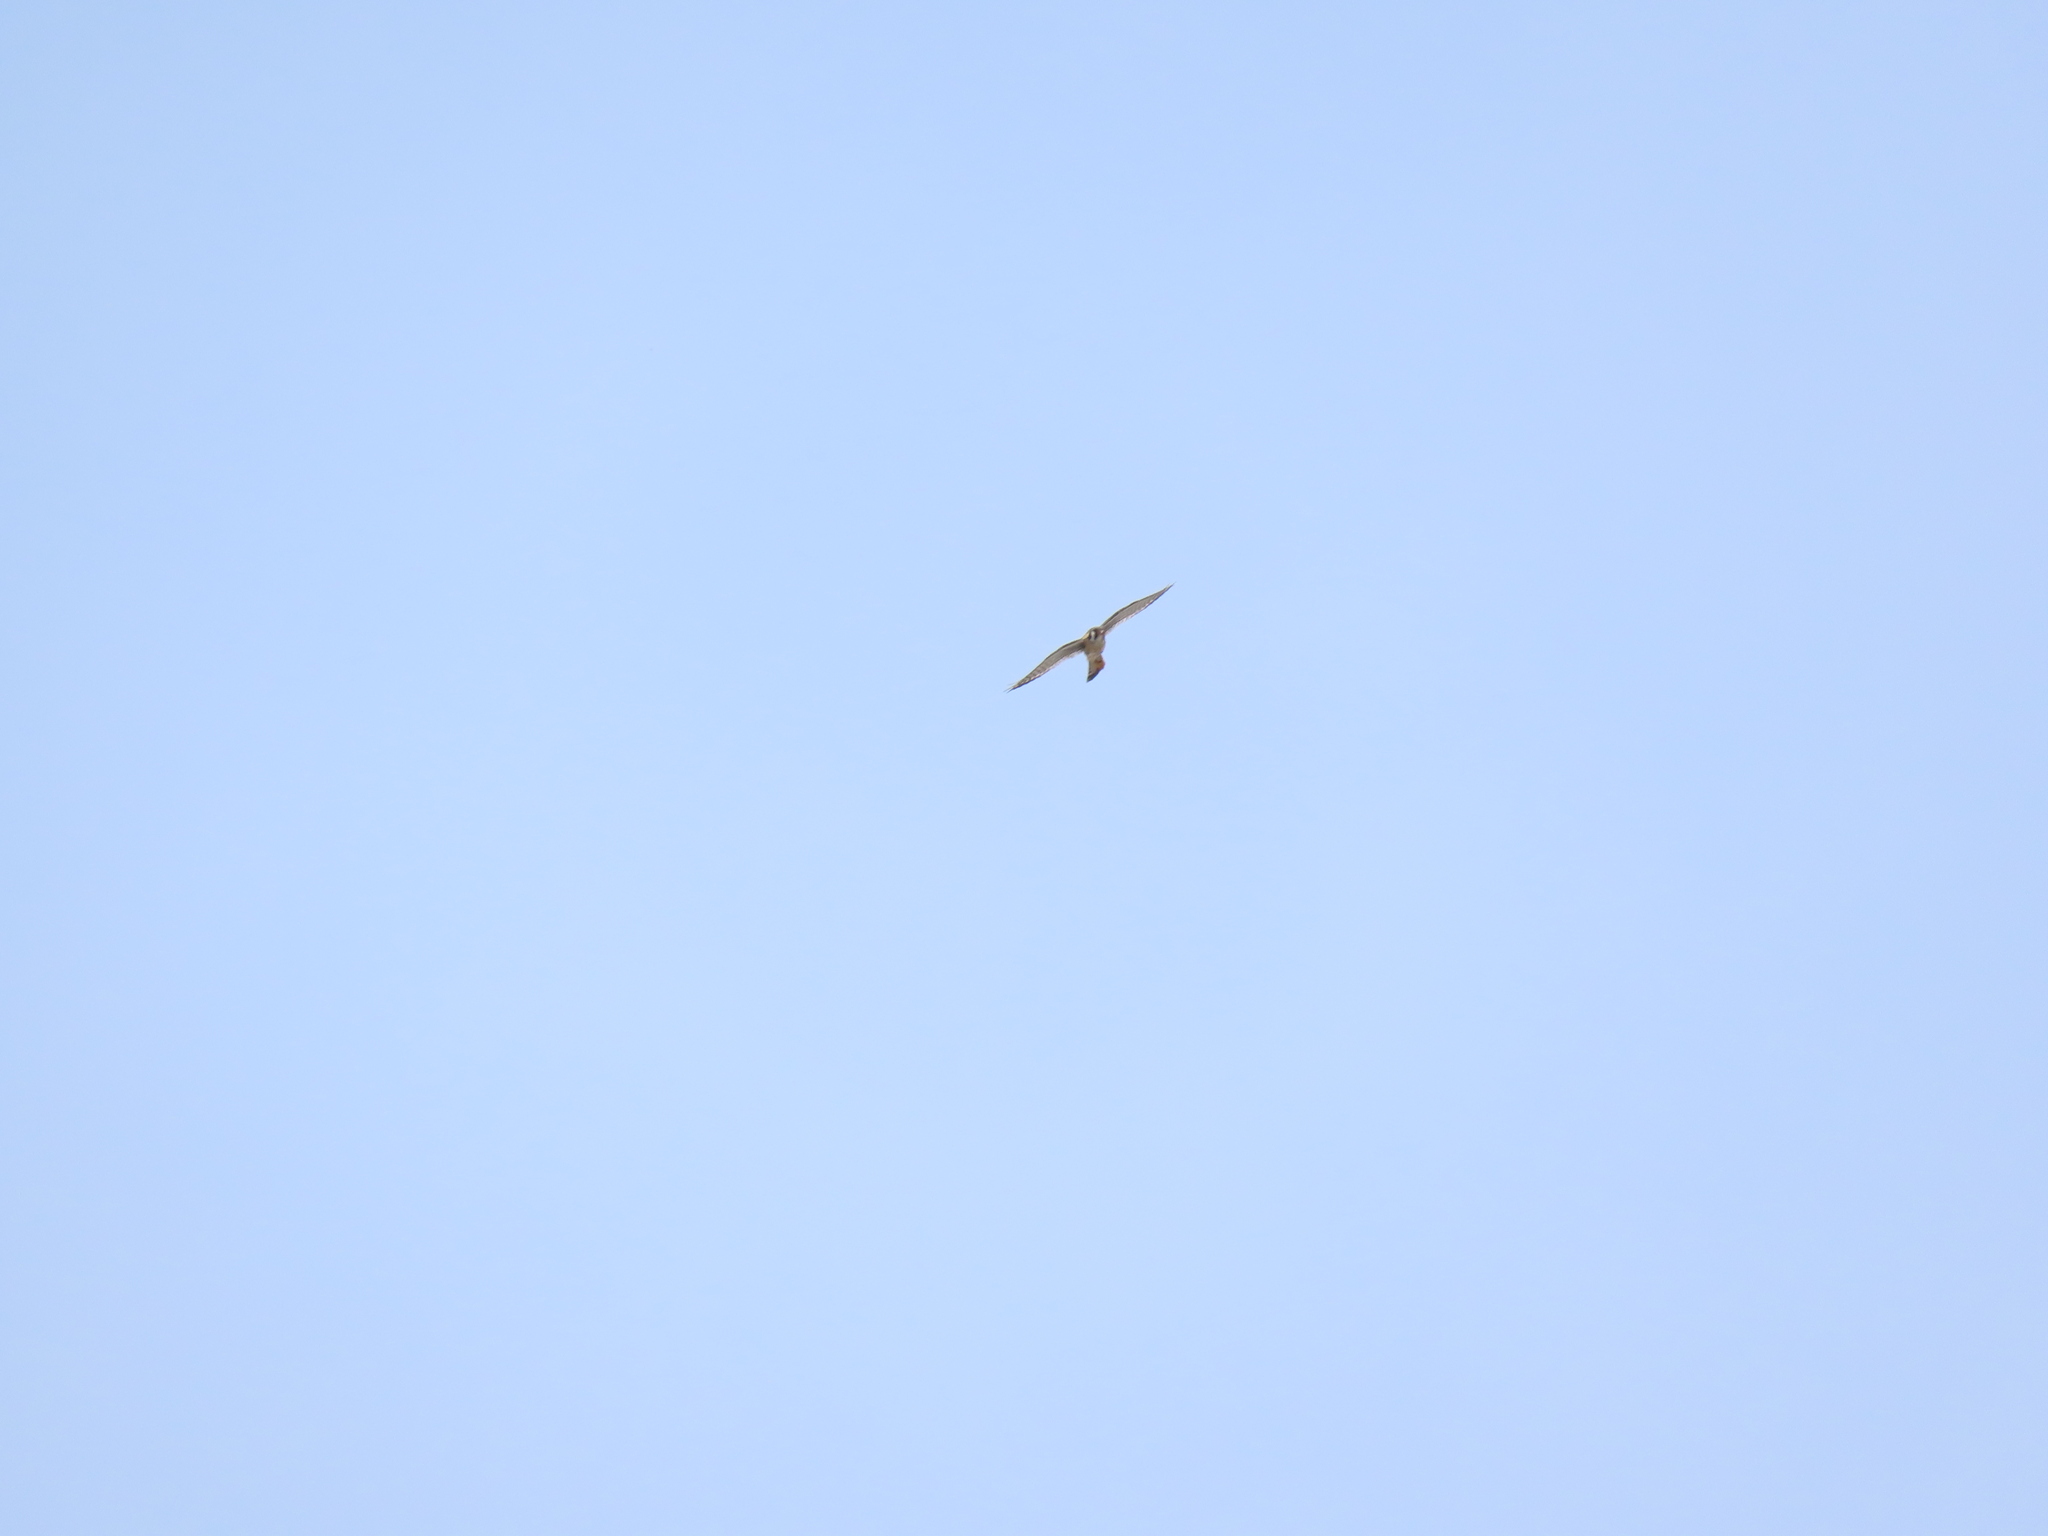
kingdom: Animalia
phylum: Chordata
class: Aves
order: Falconiformes
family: Falconidae
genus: Falco
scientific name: Falco sparverius
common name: American kestrel
